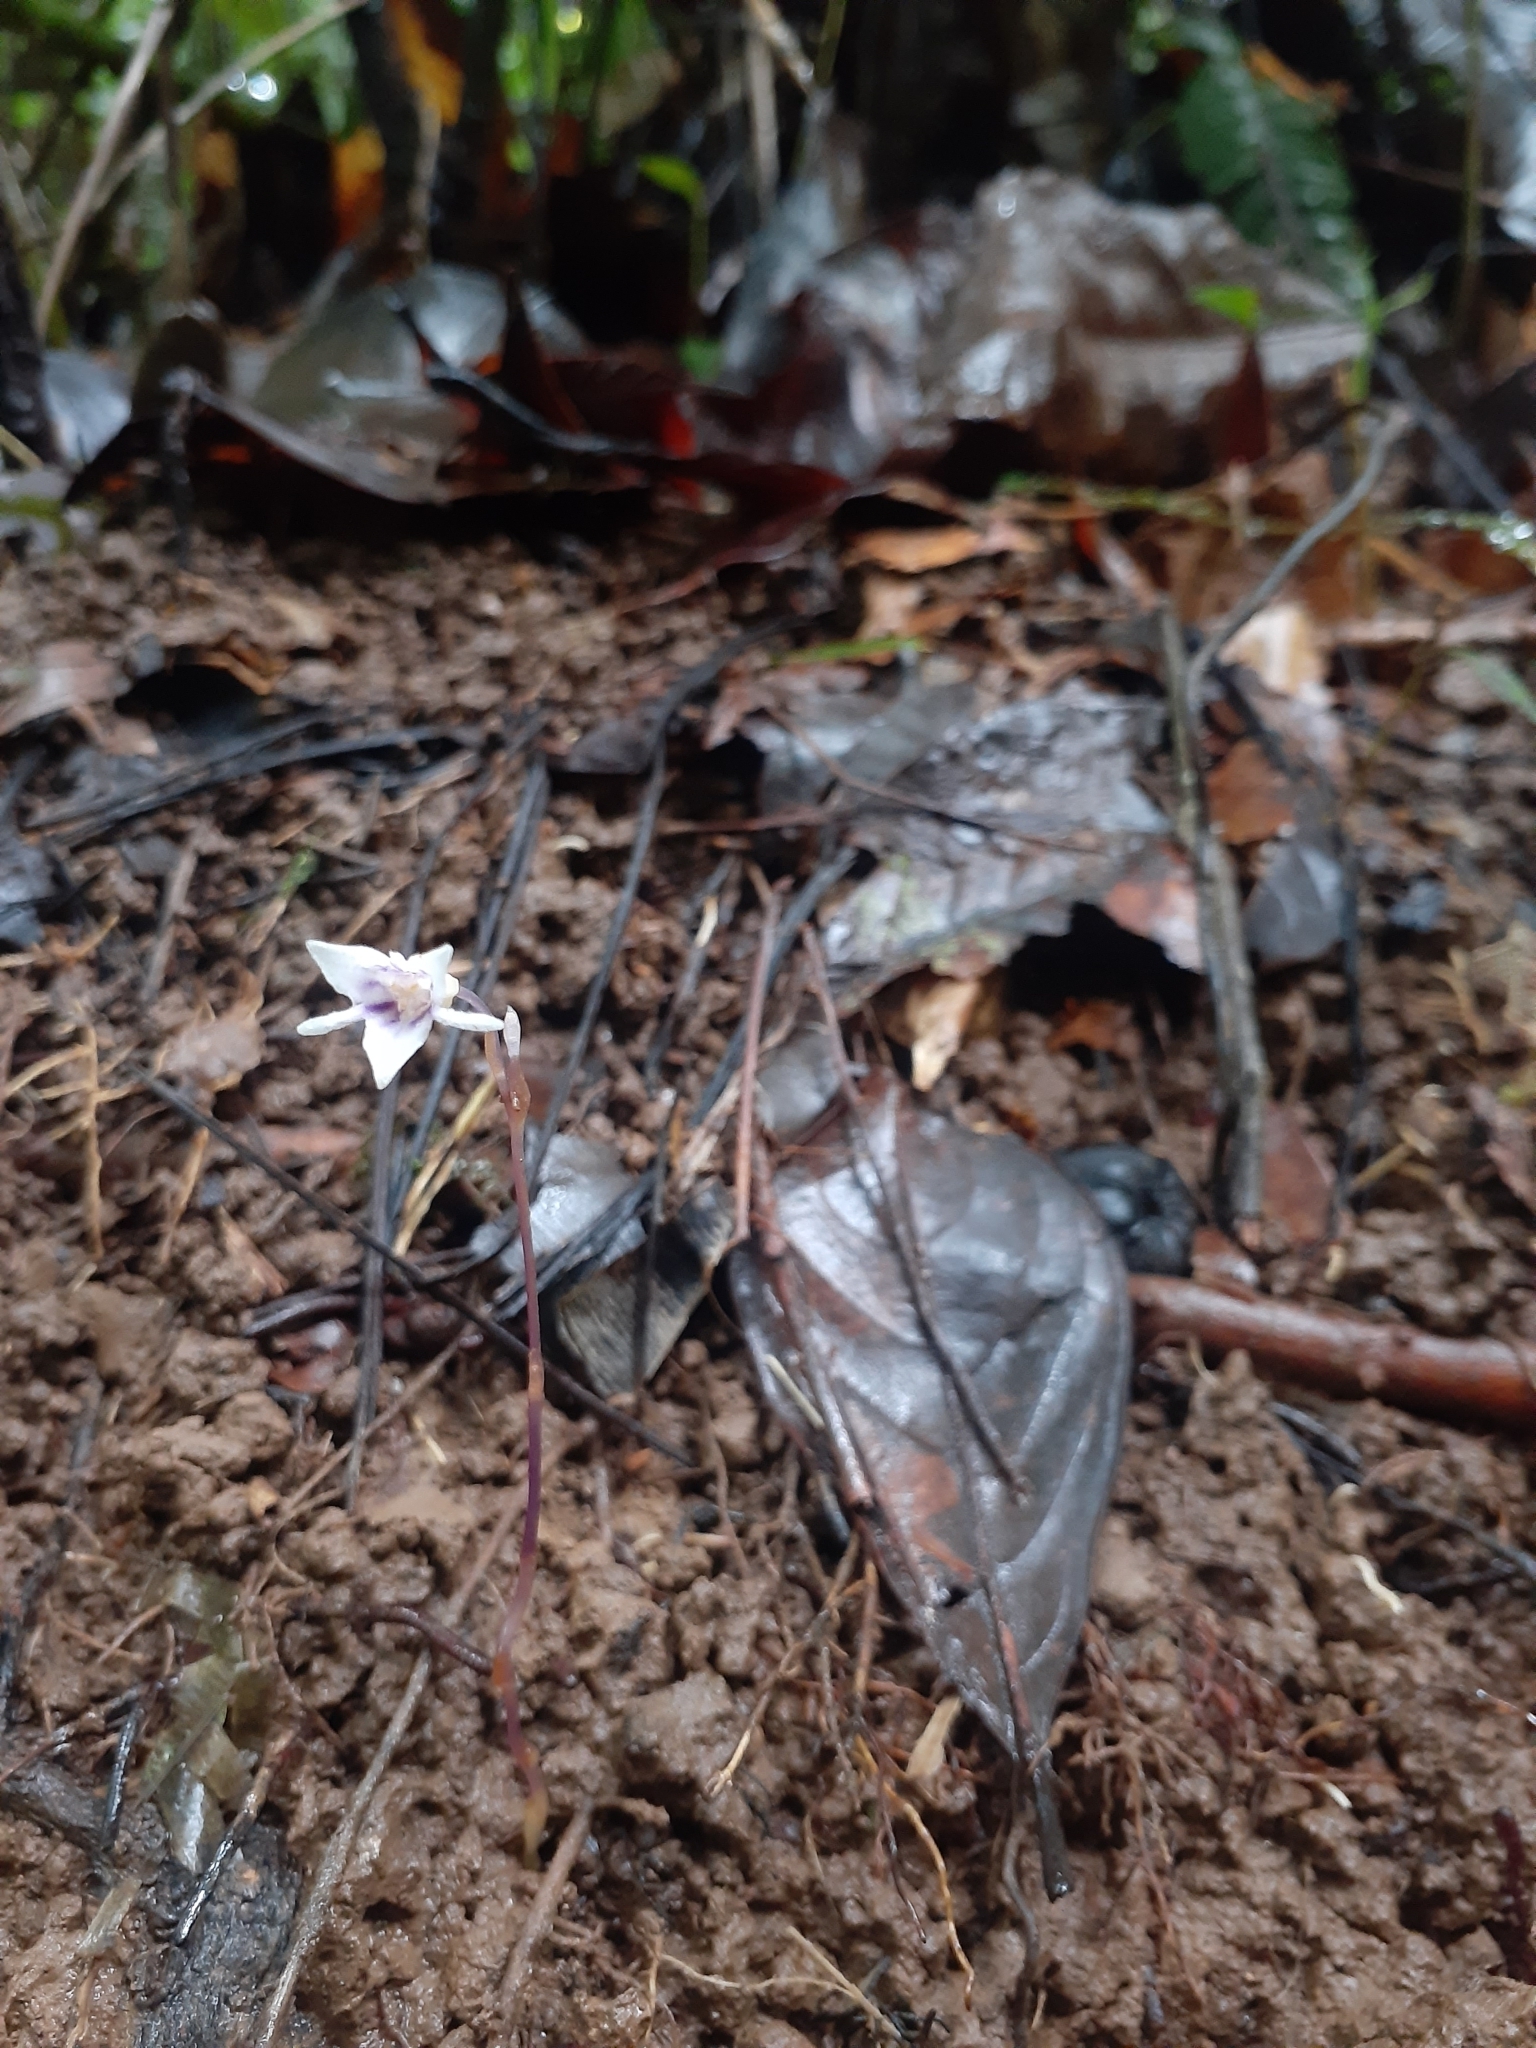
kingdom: Plantae
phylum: Tracheophyta
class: Liliopsida
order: Dioscoreales
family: Burmanniaceae
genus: Apteria
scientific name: Apteria aphylla
